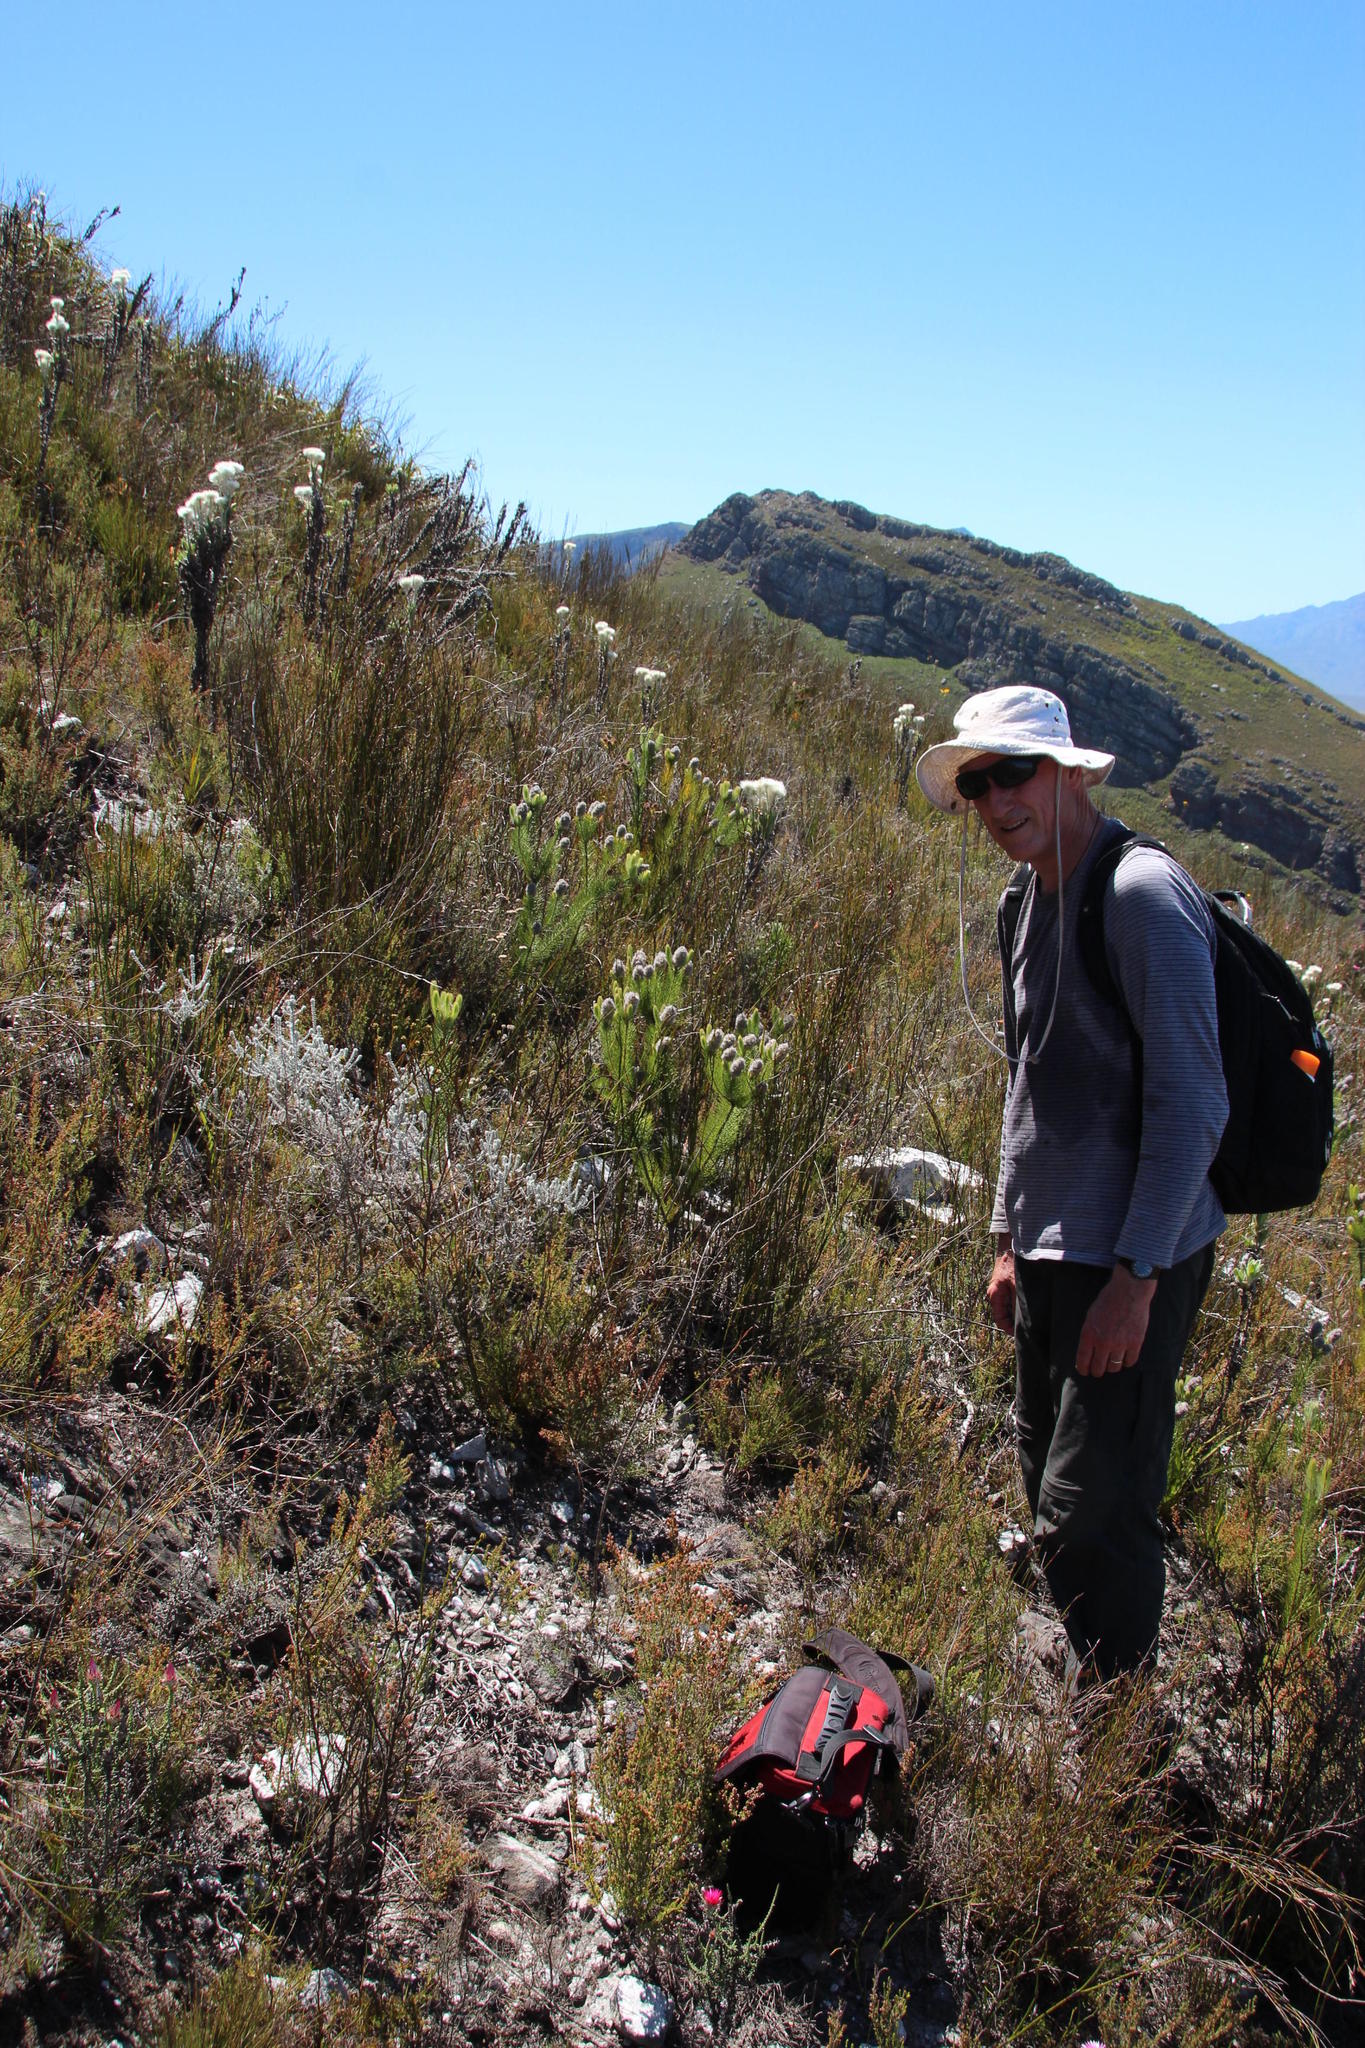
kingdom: Plantae
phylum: Tracheophyta
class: Magnoliopsida
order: Proteales
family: Proteaceae
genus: Sorocephalus
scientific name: Sorocephalus alopecurus
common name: Woolly-stalk clusterhead
